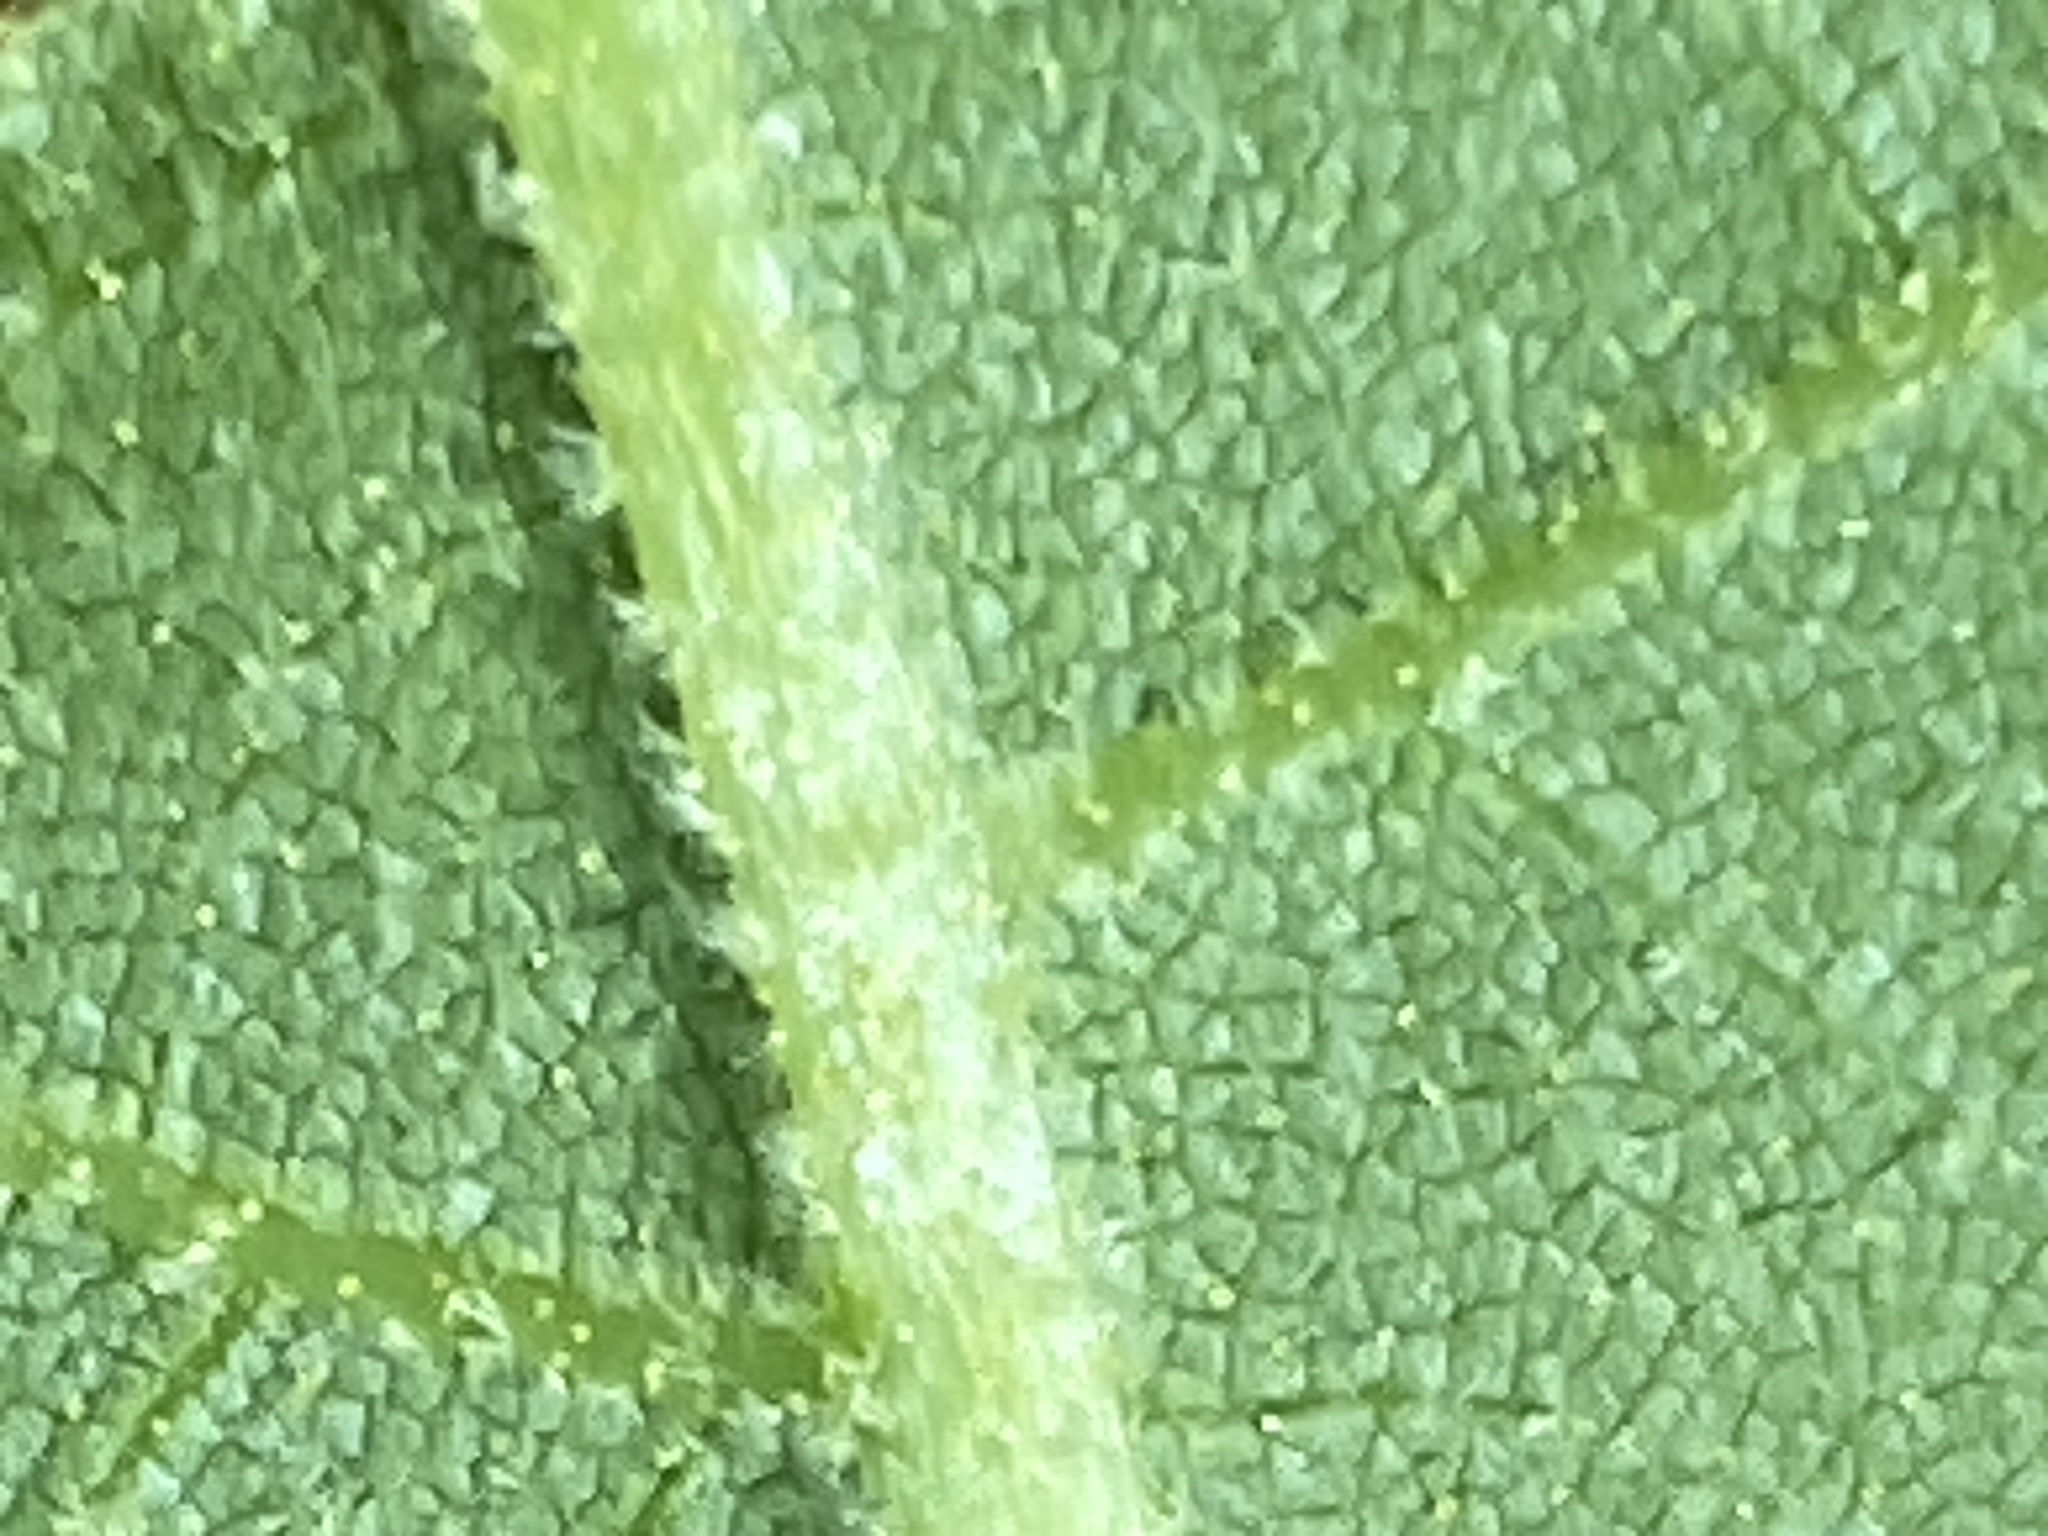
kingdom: Plantae
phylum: Tracheophyta
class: Magnoliopsida
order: Fagales
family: Juglandaceae
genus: Carya
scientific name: Carya alba
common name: Mockernut hickory
